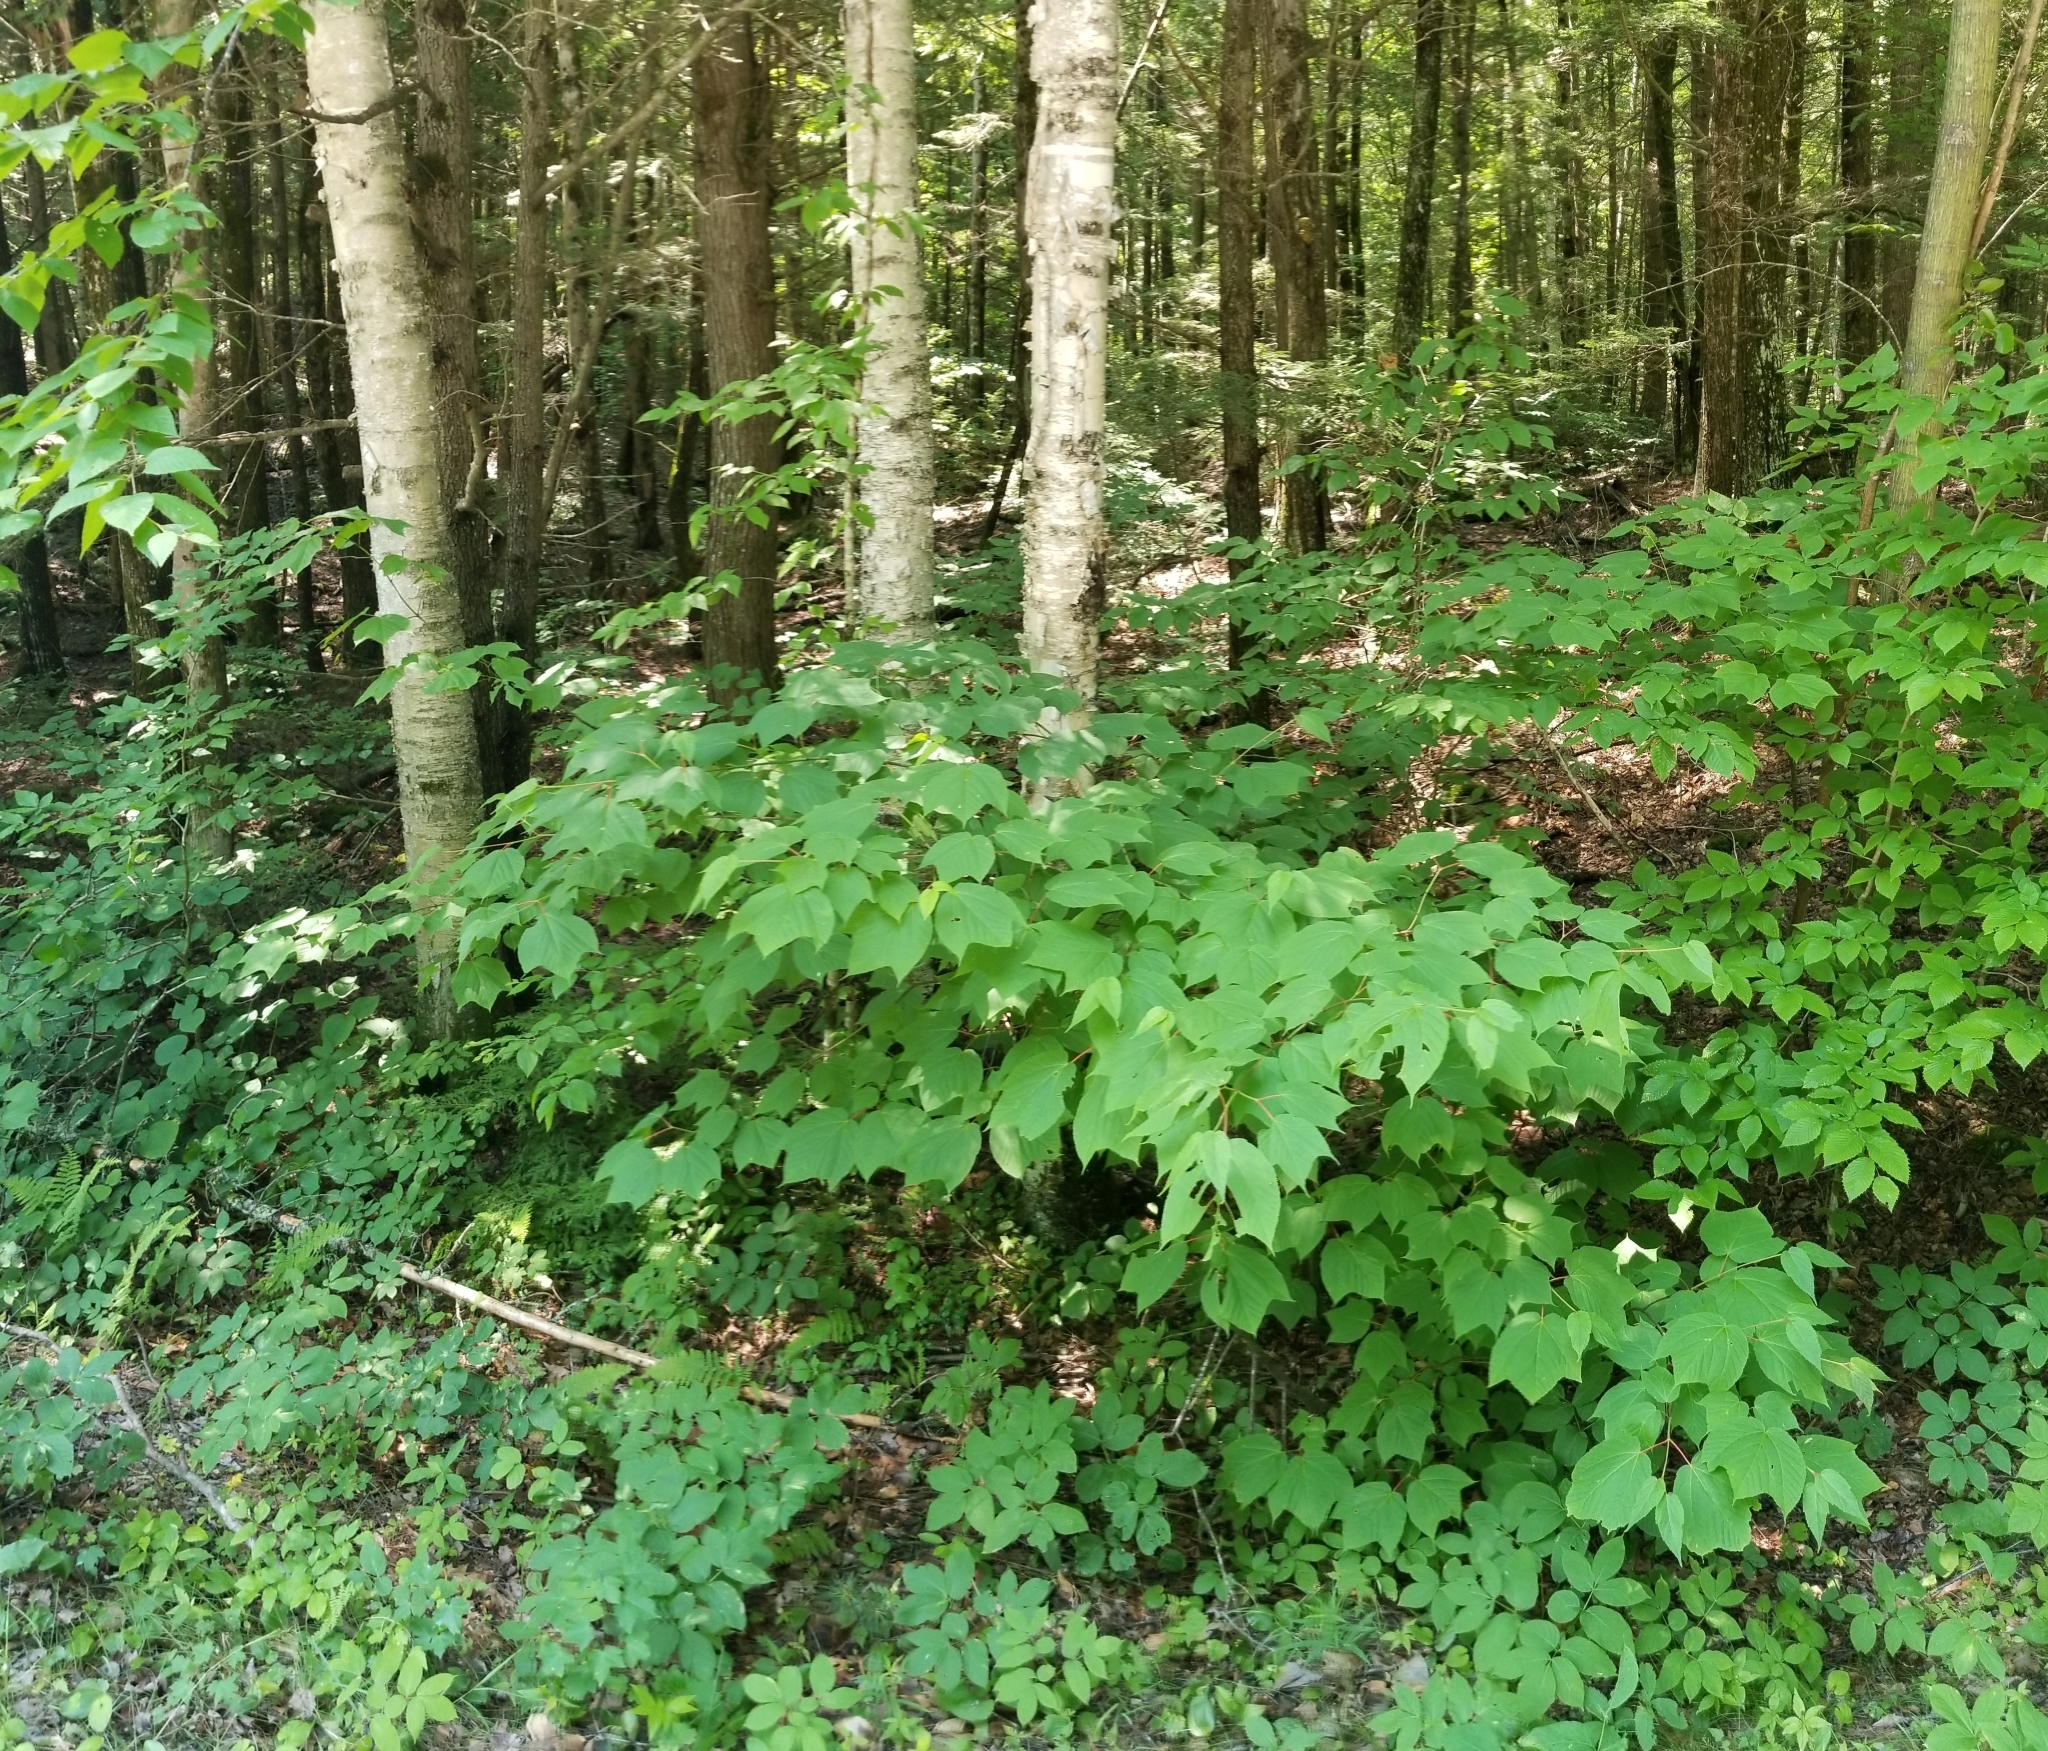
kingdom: Plantae
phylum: Tracheophyta
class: Magnoliopsida
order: Sapindales
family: Sapindaceae
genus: Acer
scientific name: Acer pensylvanicum
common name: Moosewood
